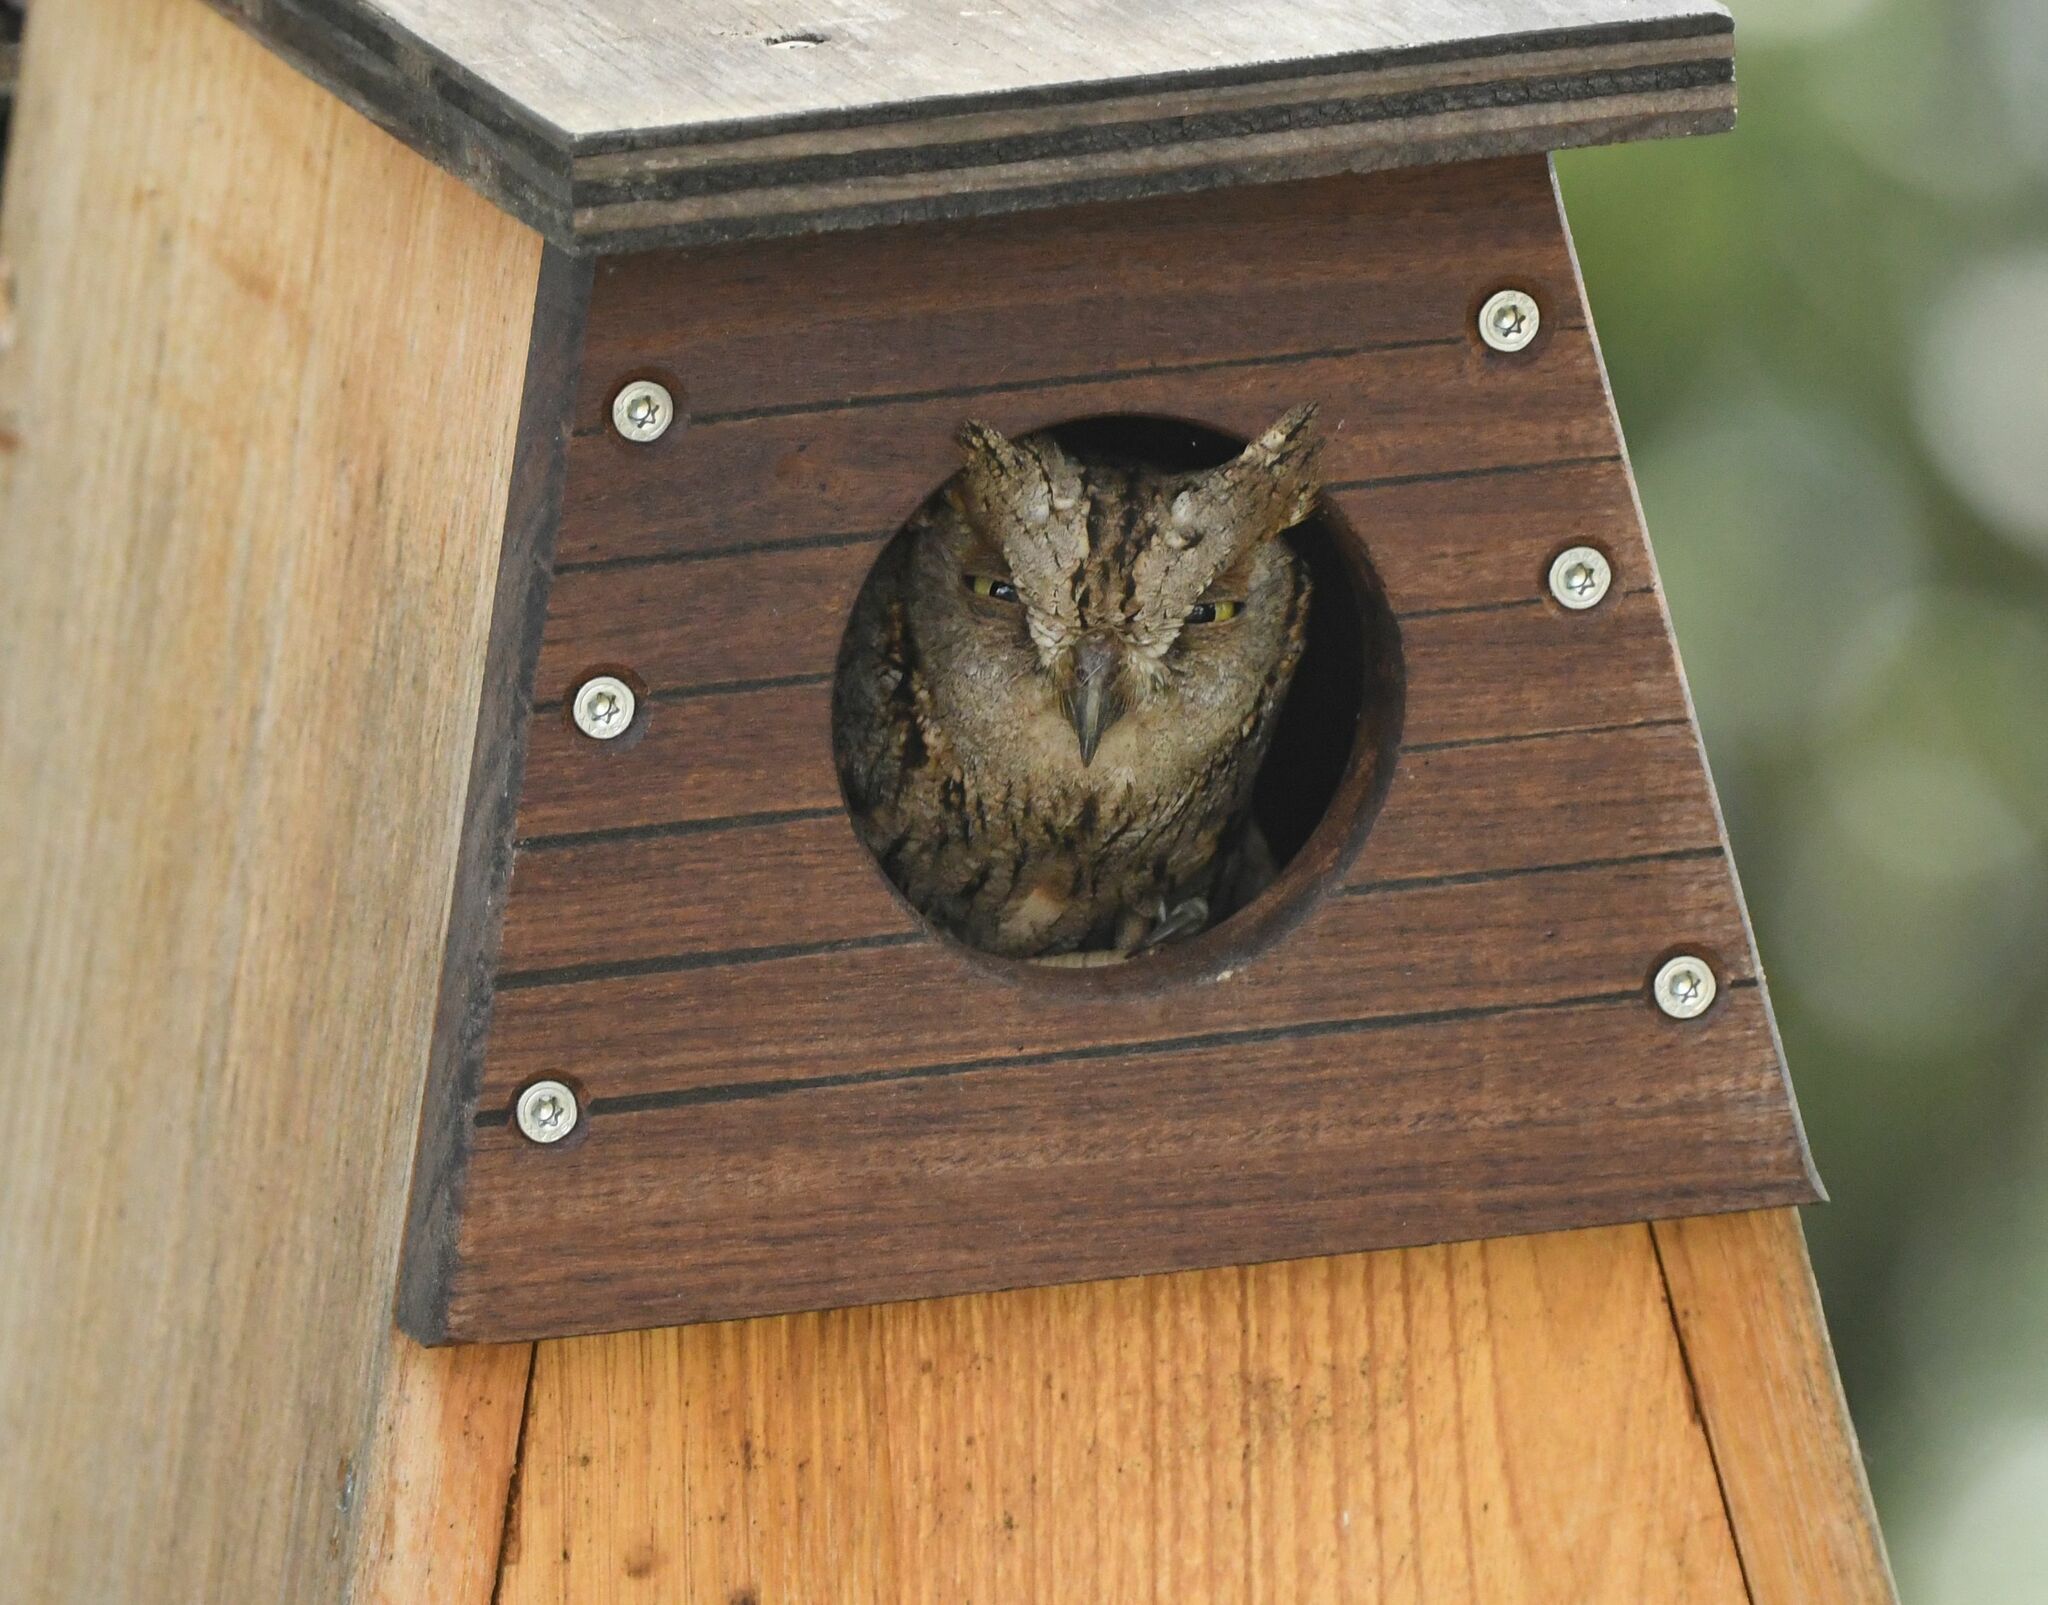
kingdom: Animalia
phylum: Chordata
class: Aves
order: Strigiformes
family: Strigidae
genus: Otus
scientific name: Otus scops
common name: Eurasian scops owl
